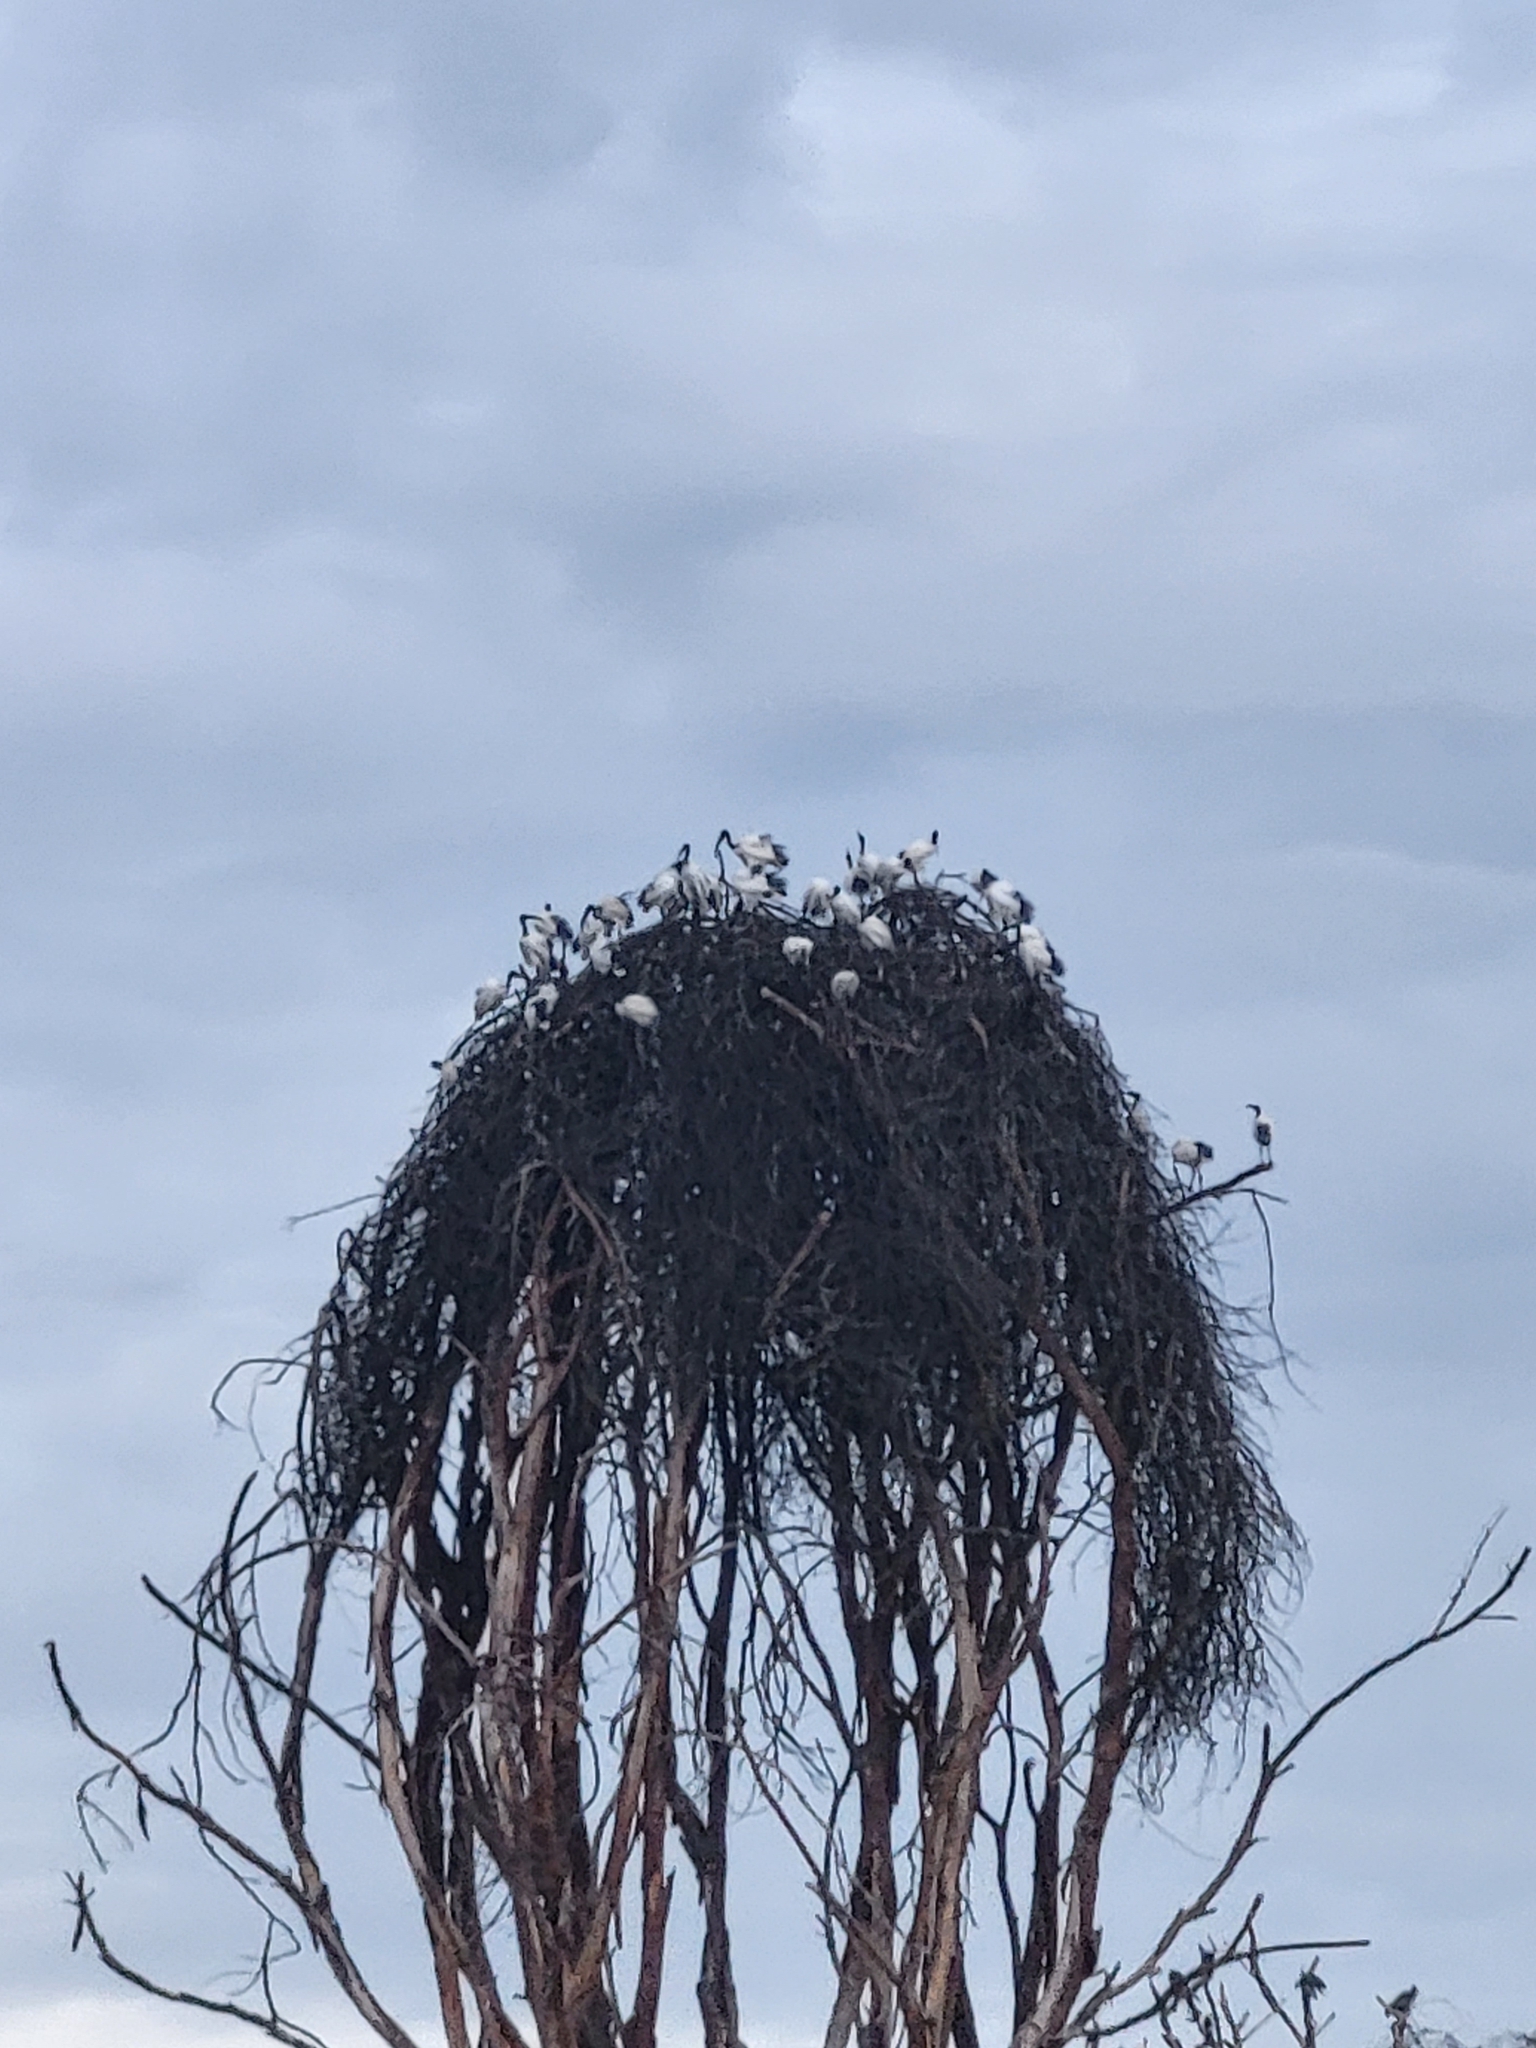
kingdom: Animalia
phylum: Chordata
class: Aves
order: Pelecaniformes
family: Threskiornithidae
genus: Threskiornis
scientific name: Threskiornis aethiopicus
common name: Sacred ibis
